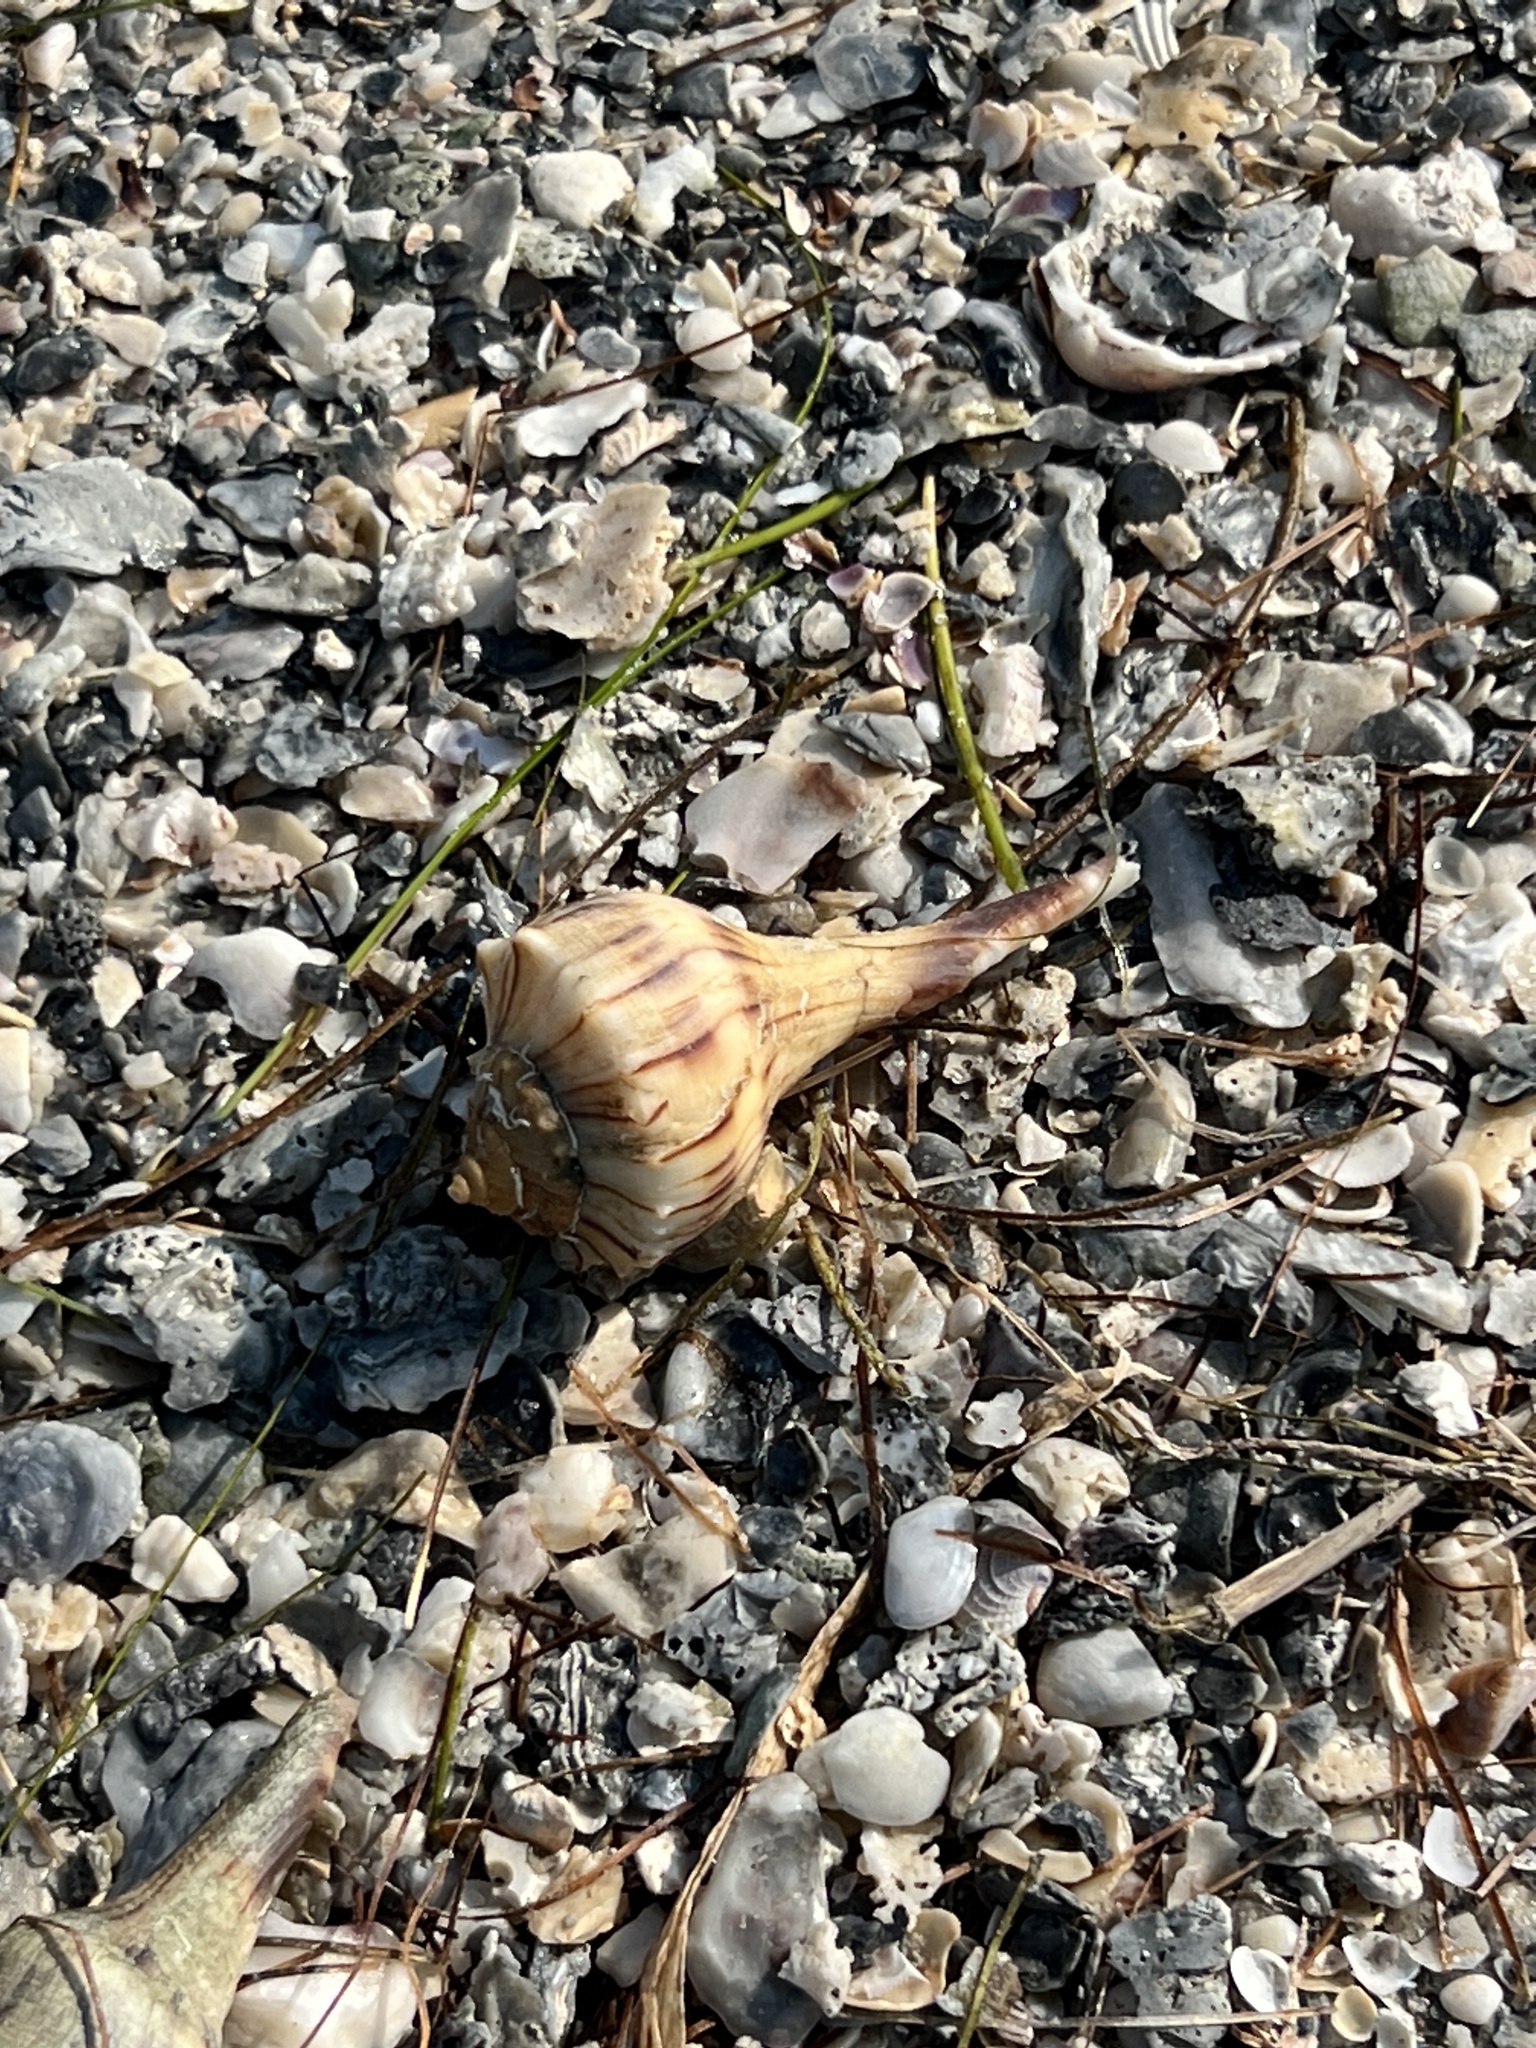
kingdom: Animalia
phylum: Mollusca
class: Gastropoda
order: Neogastropoda
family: Busyconidae
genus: Sinistrofulgur
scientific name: Sinistrofulgur pulleyi
